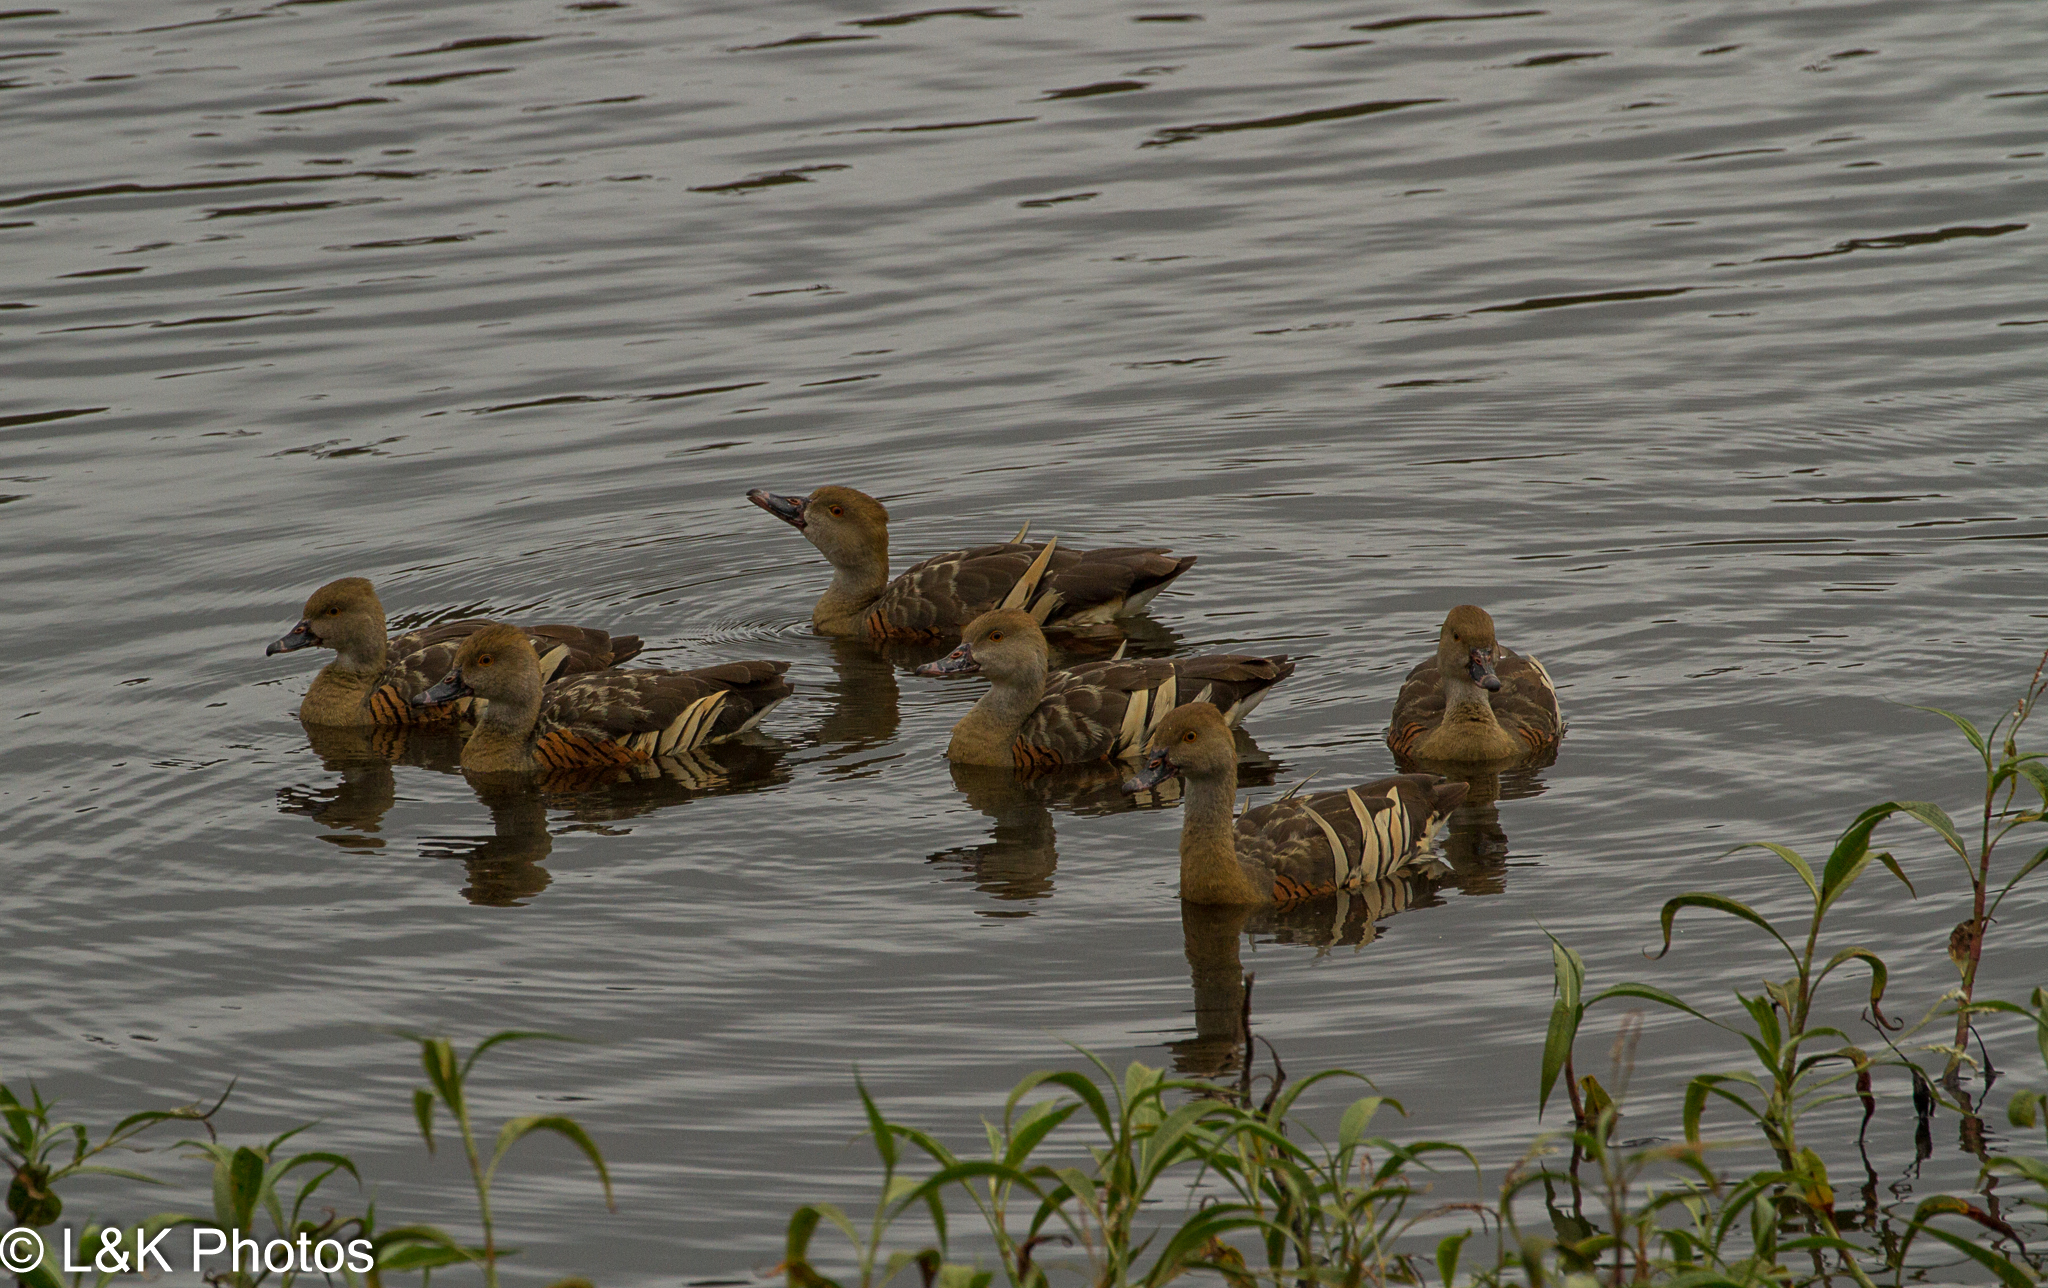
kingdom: Animalia
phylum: Chordata
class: Aves
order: Anseriformes
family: Anatidae
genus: Dendrocygna
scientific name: Dendrocygna eytoni
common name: Plumed whistling-duck
